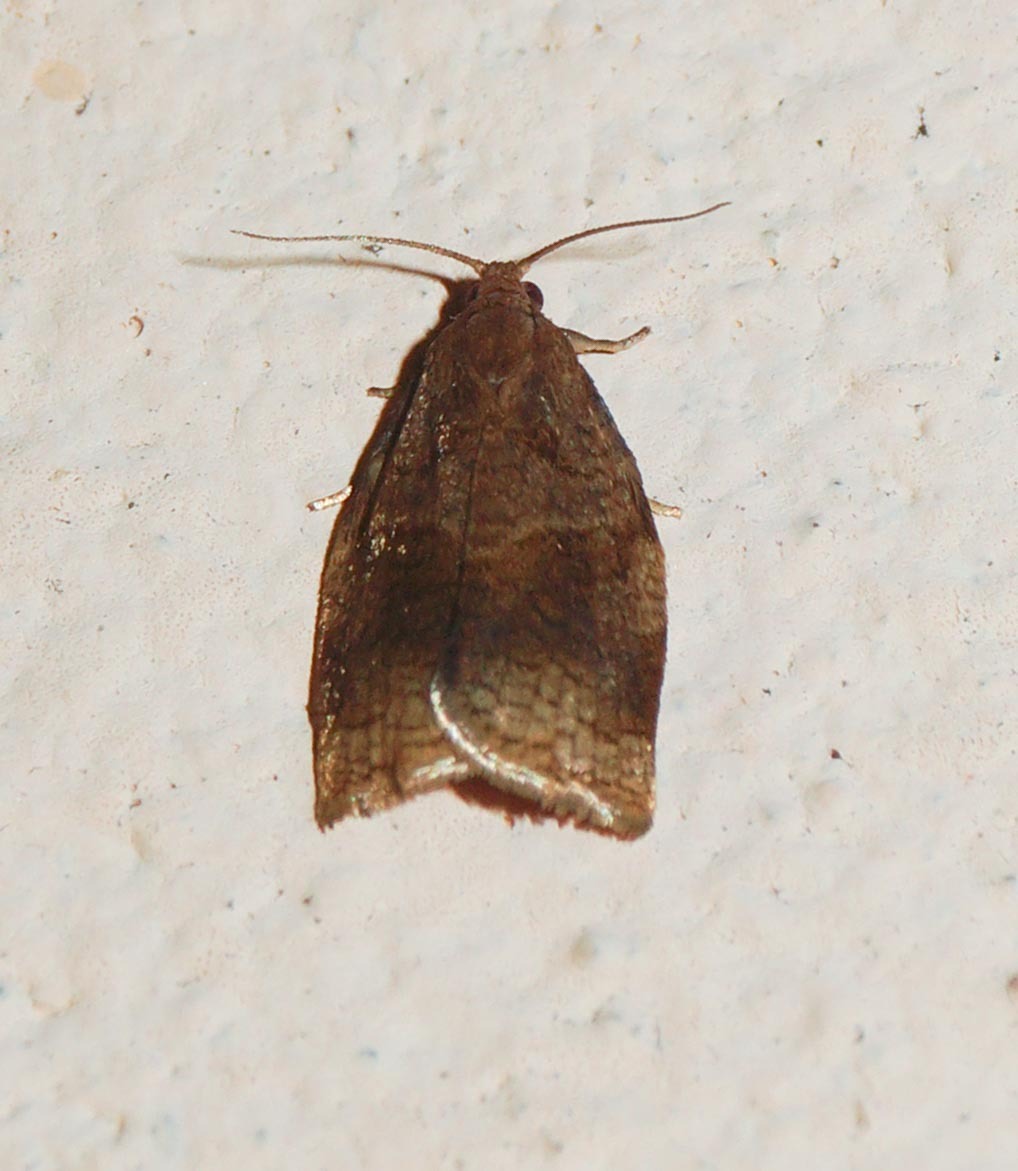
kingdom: Animalia
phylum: Arthropoda
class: Insecta
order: Lepidoptera
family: Tortricidae
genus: Archips
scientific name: Archips rosana
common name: Rose tortrix
